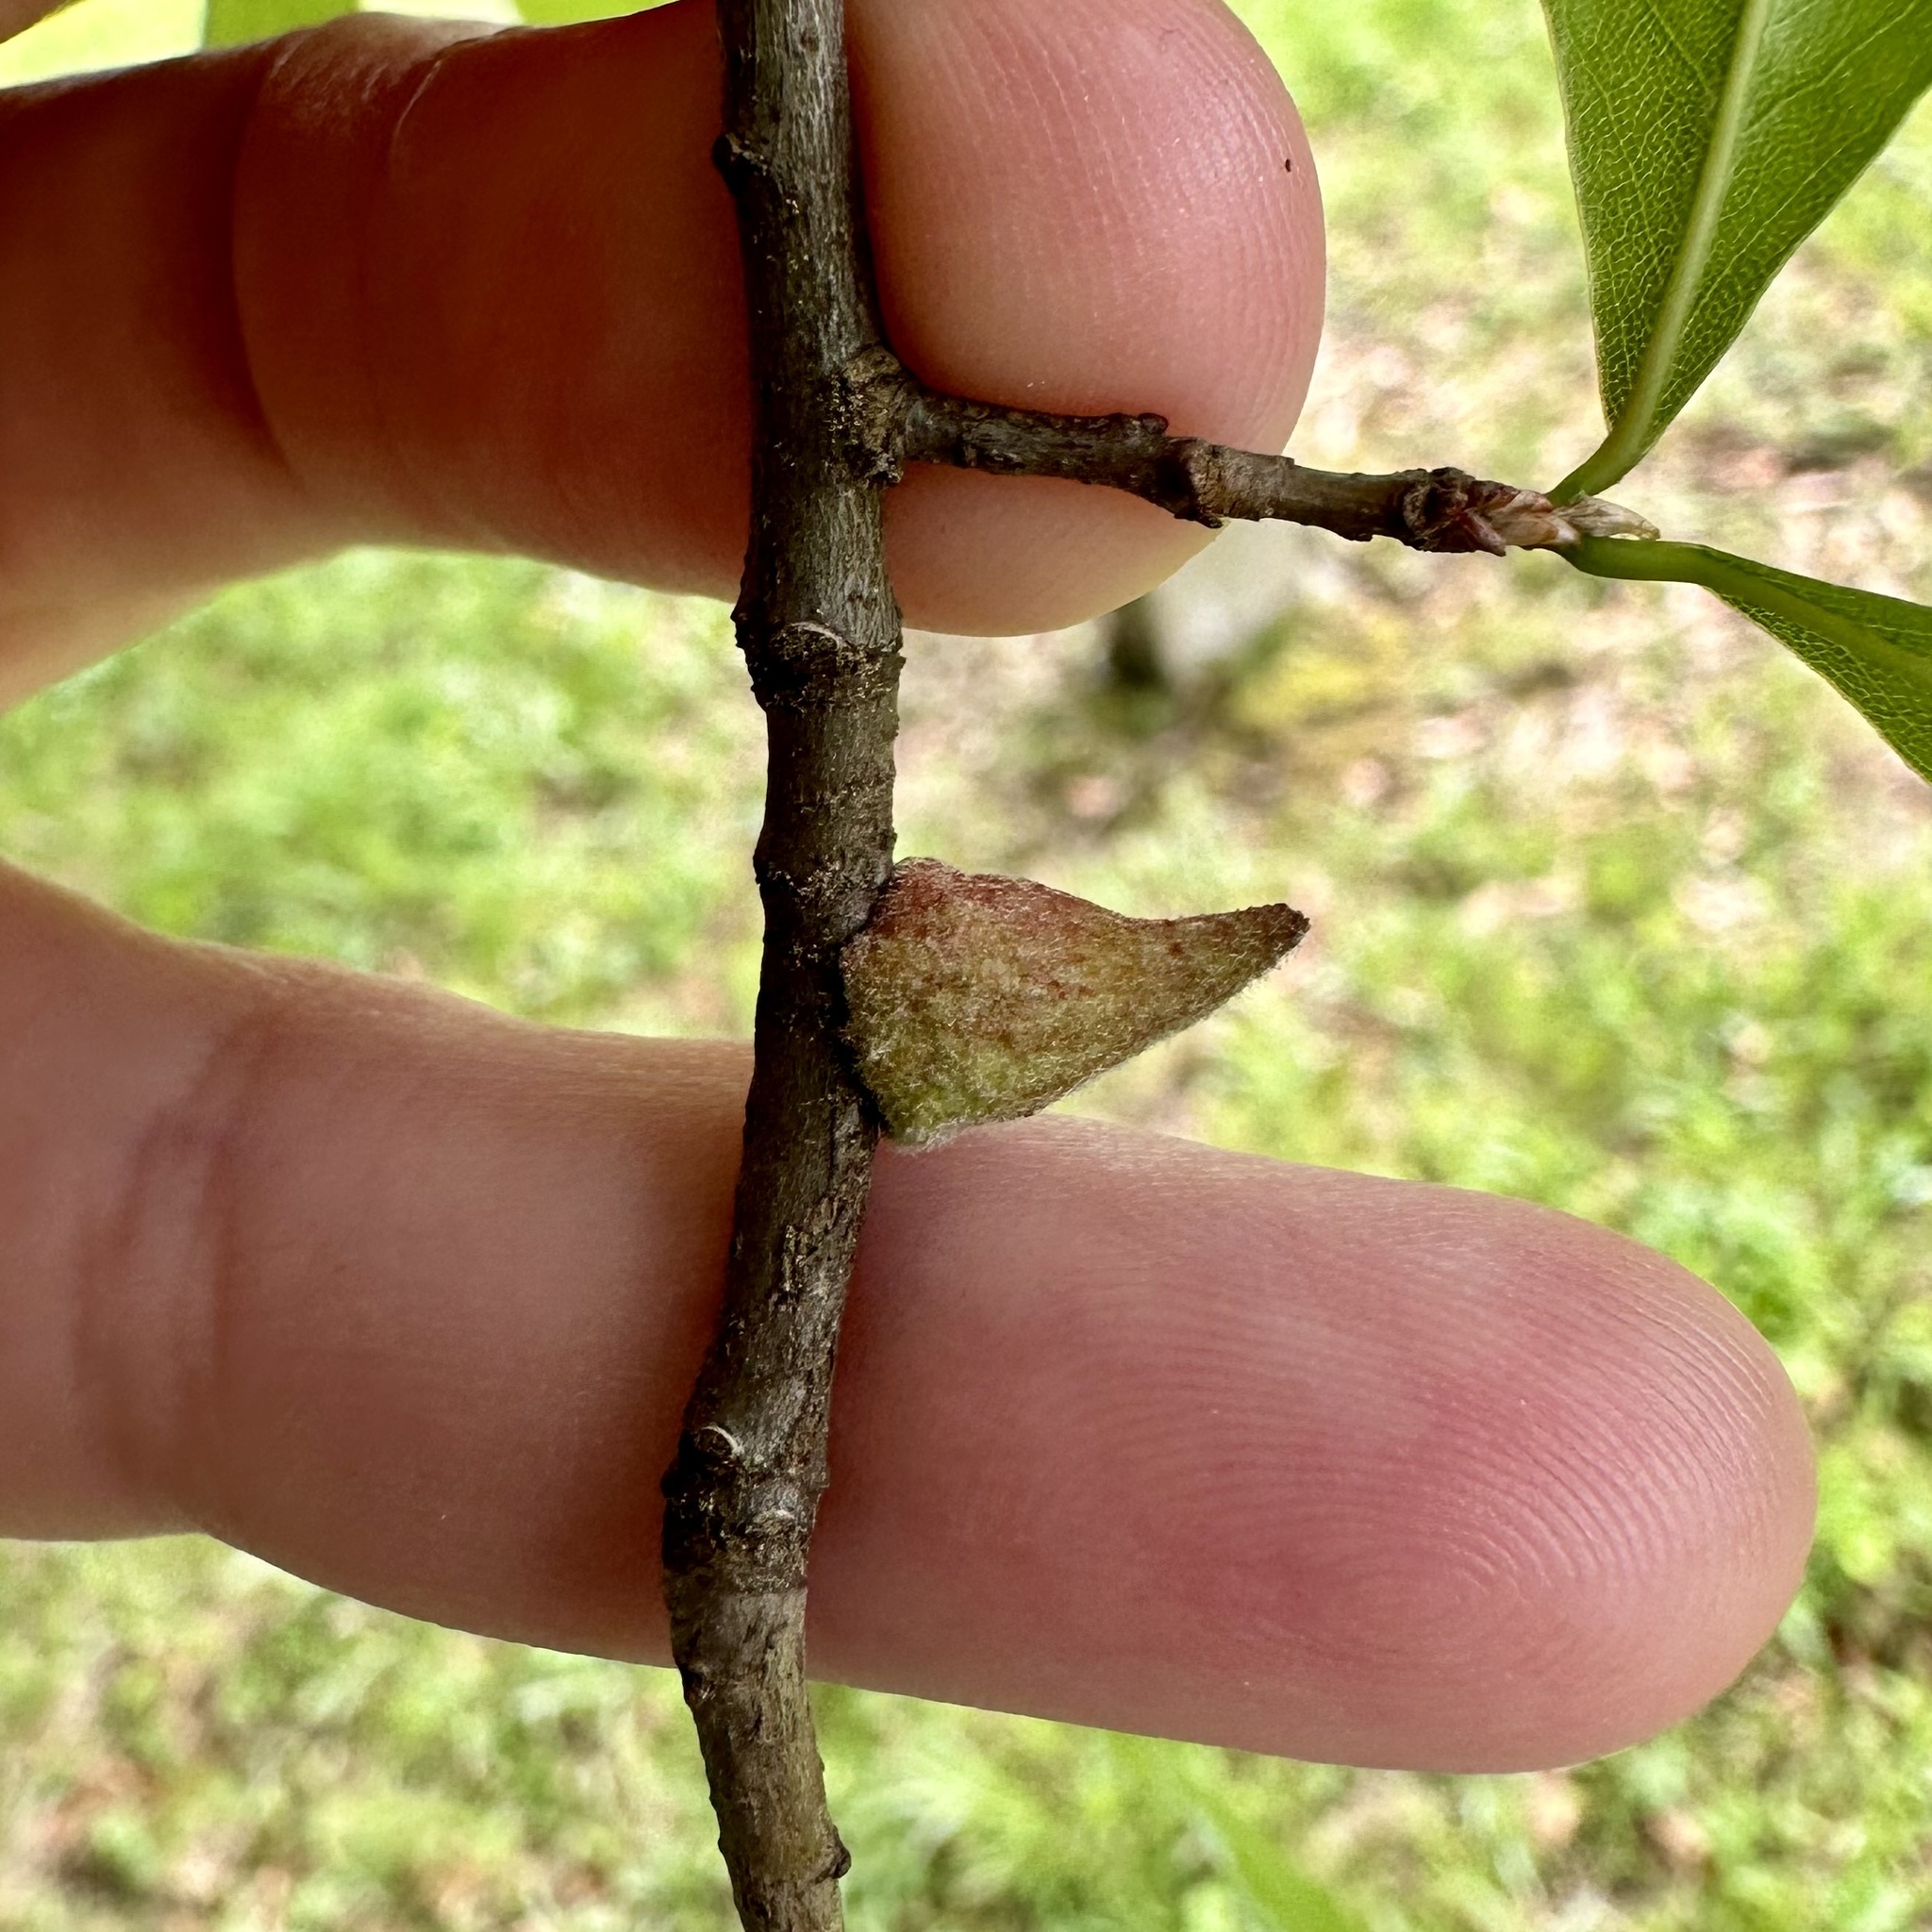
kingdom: Animalia
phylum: Arthropoda
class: Insecta
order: Hymenoptera
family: Cynipidae
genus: Callirhytis
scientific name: Callirhytis
